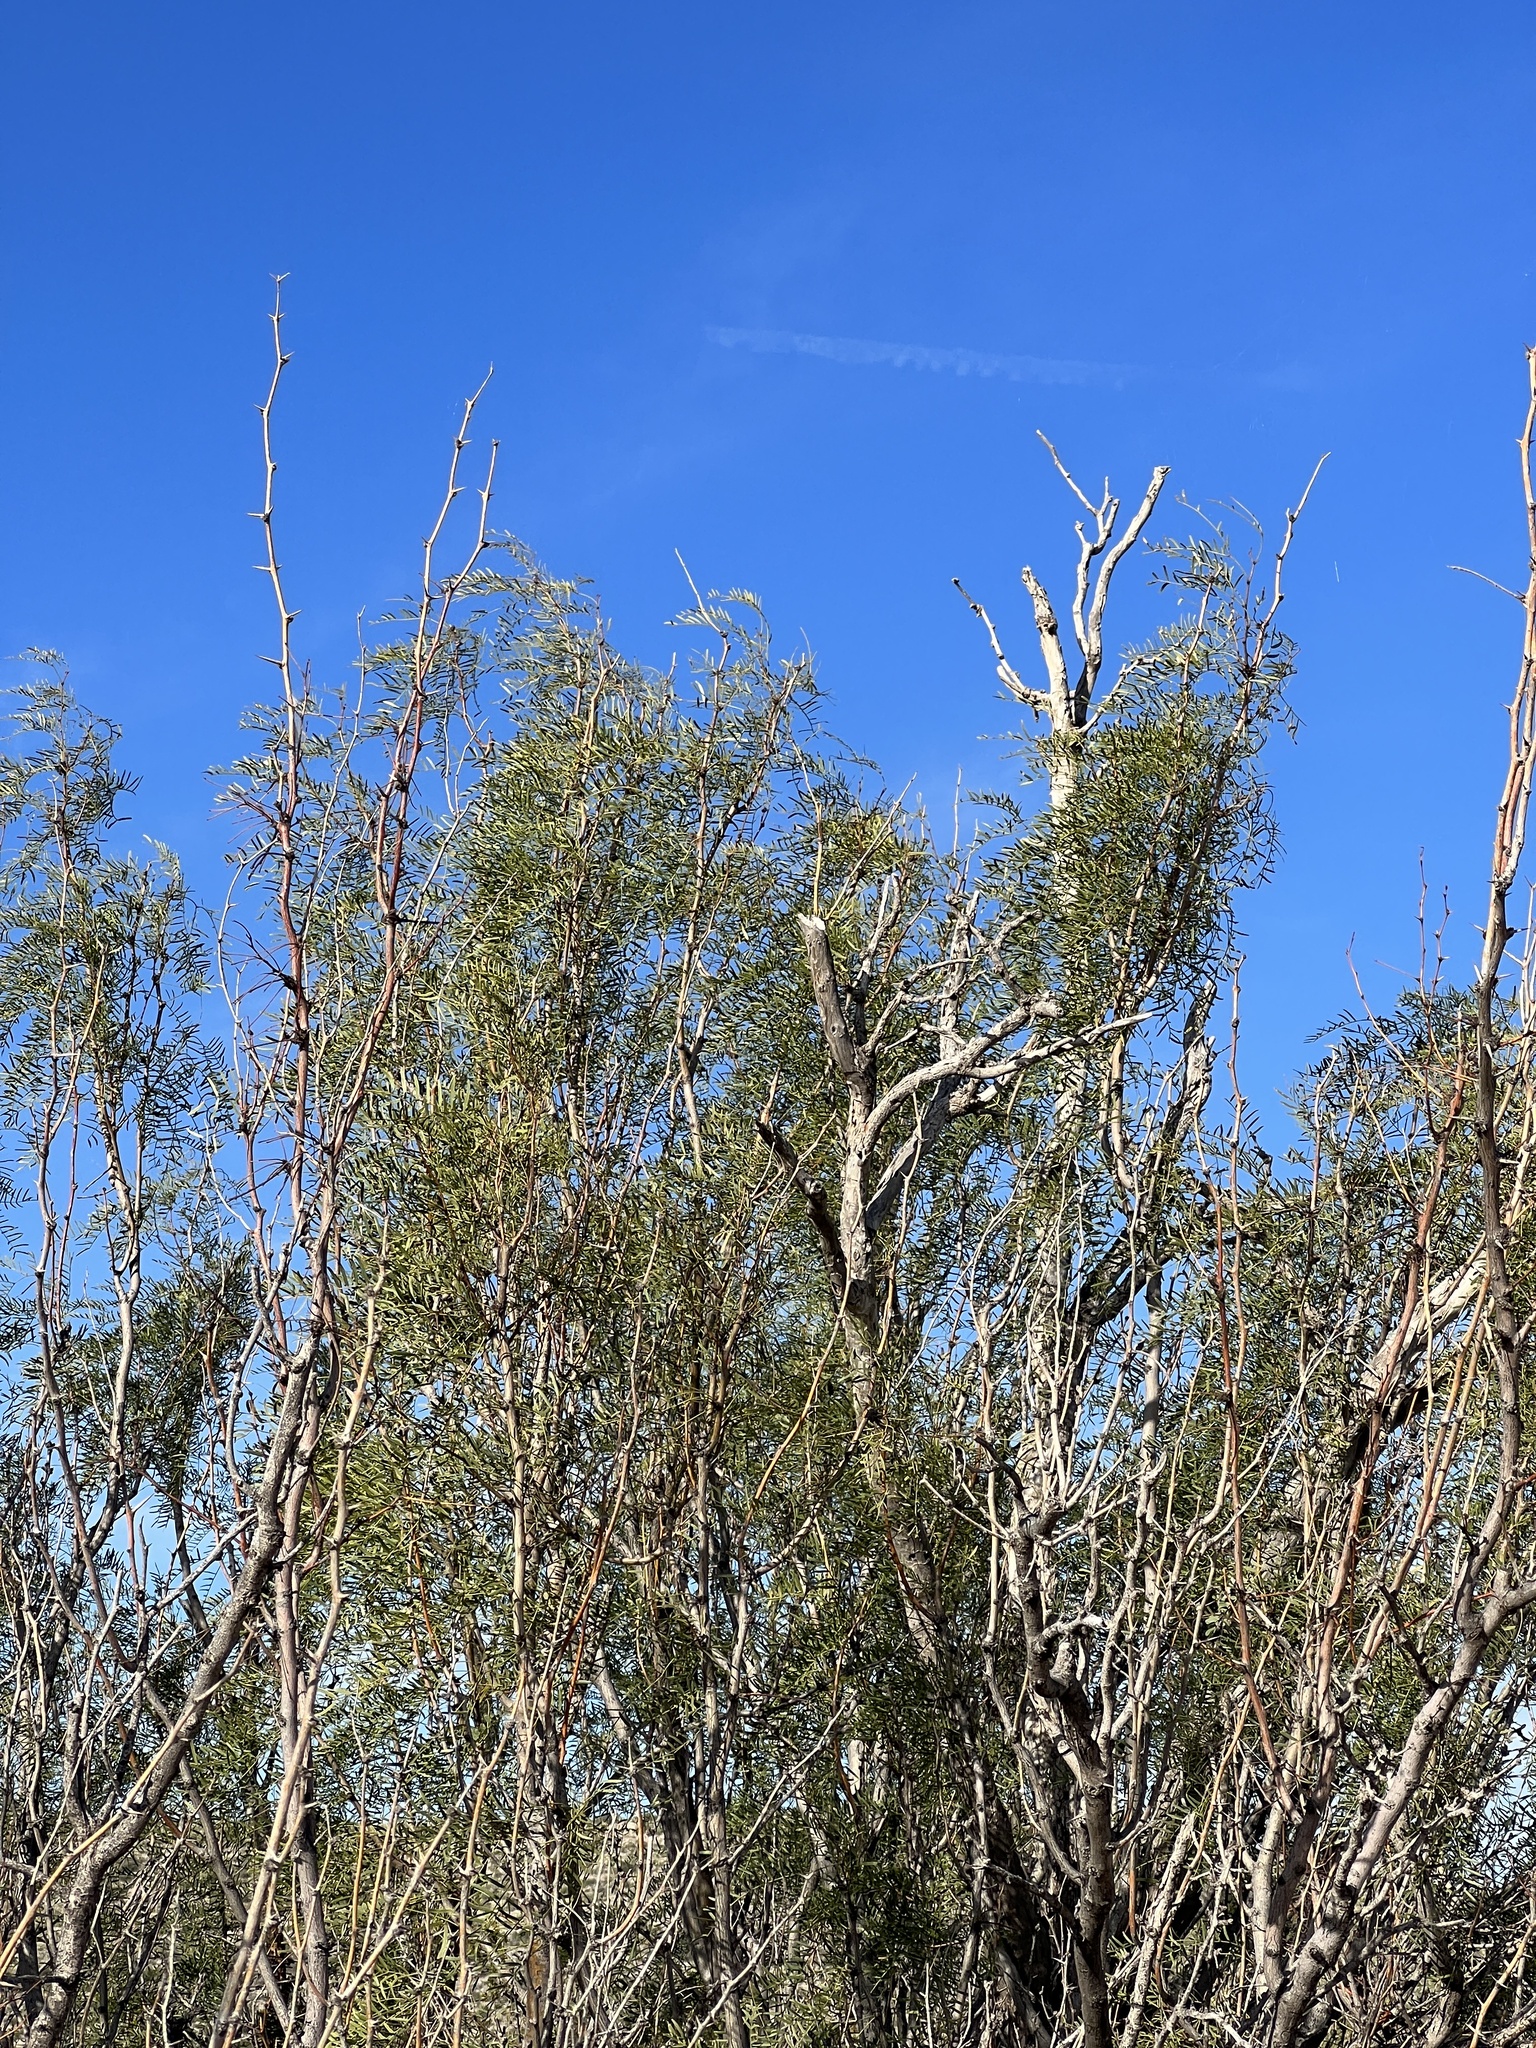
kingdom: Plantae
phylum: Tracheophyta
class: Magnoliopsida
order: Fabales
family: Fabaceae
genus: Prosopis
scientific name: Prosopis glandulosa
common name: Honey mesquite
